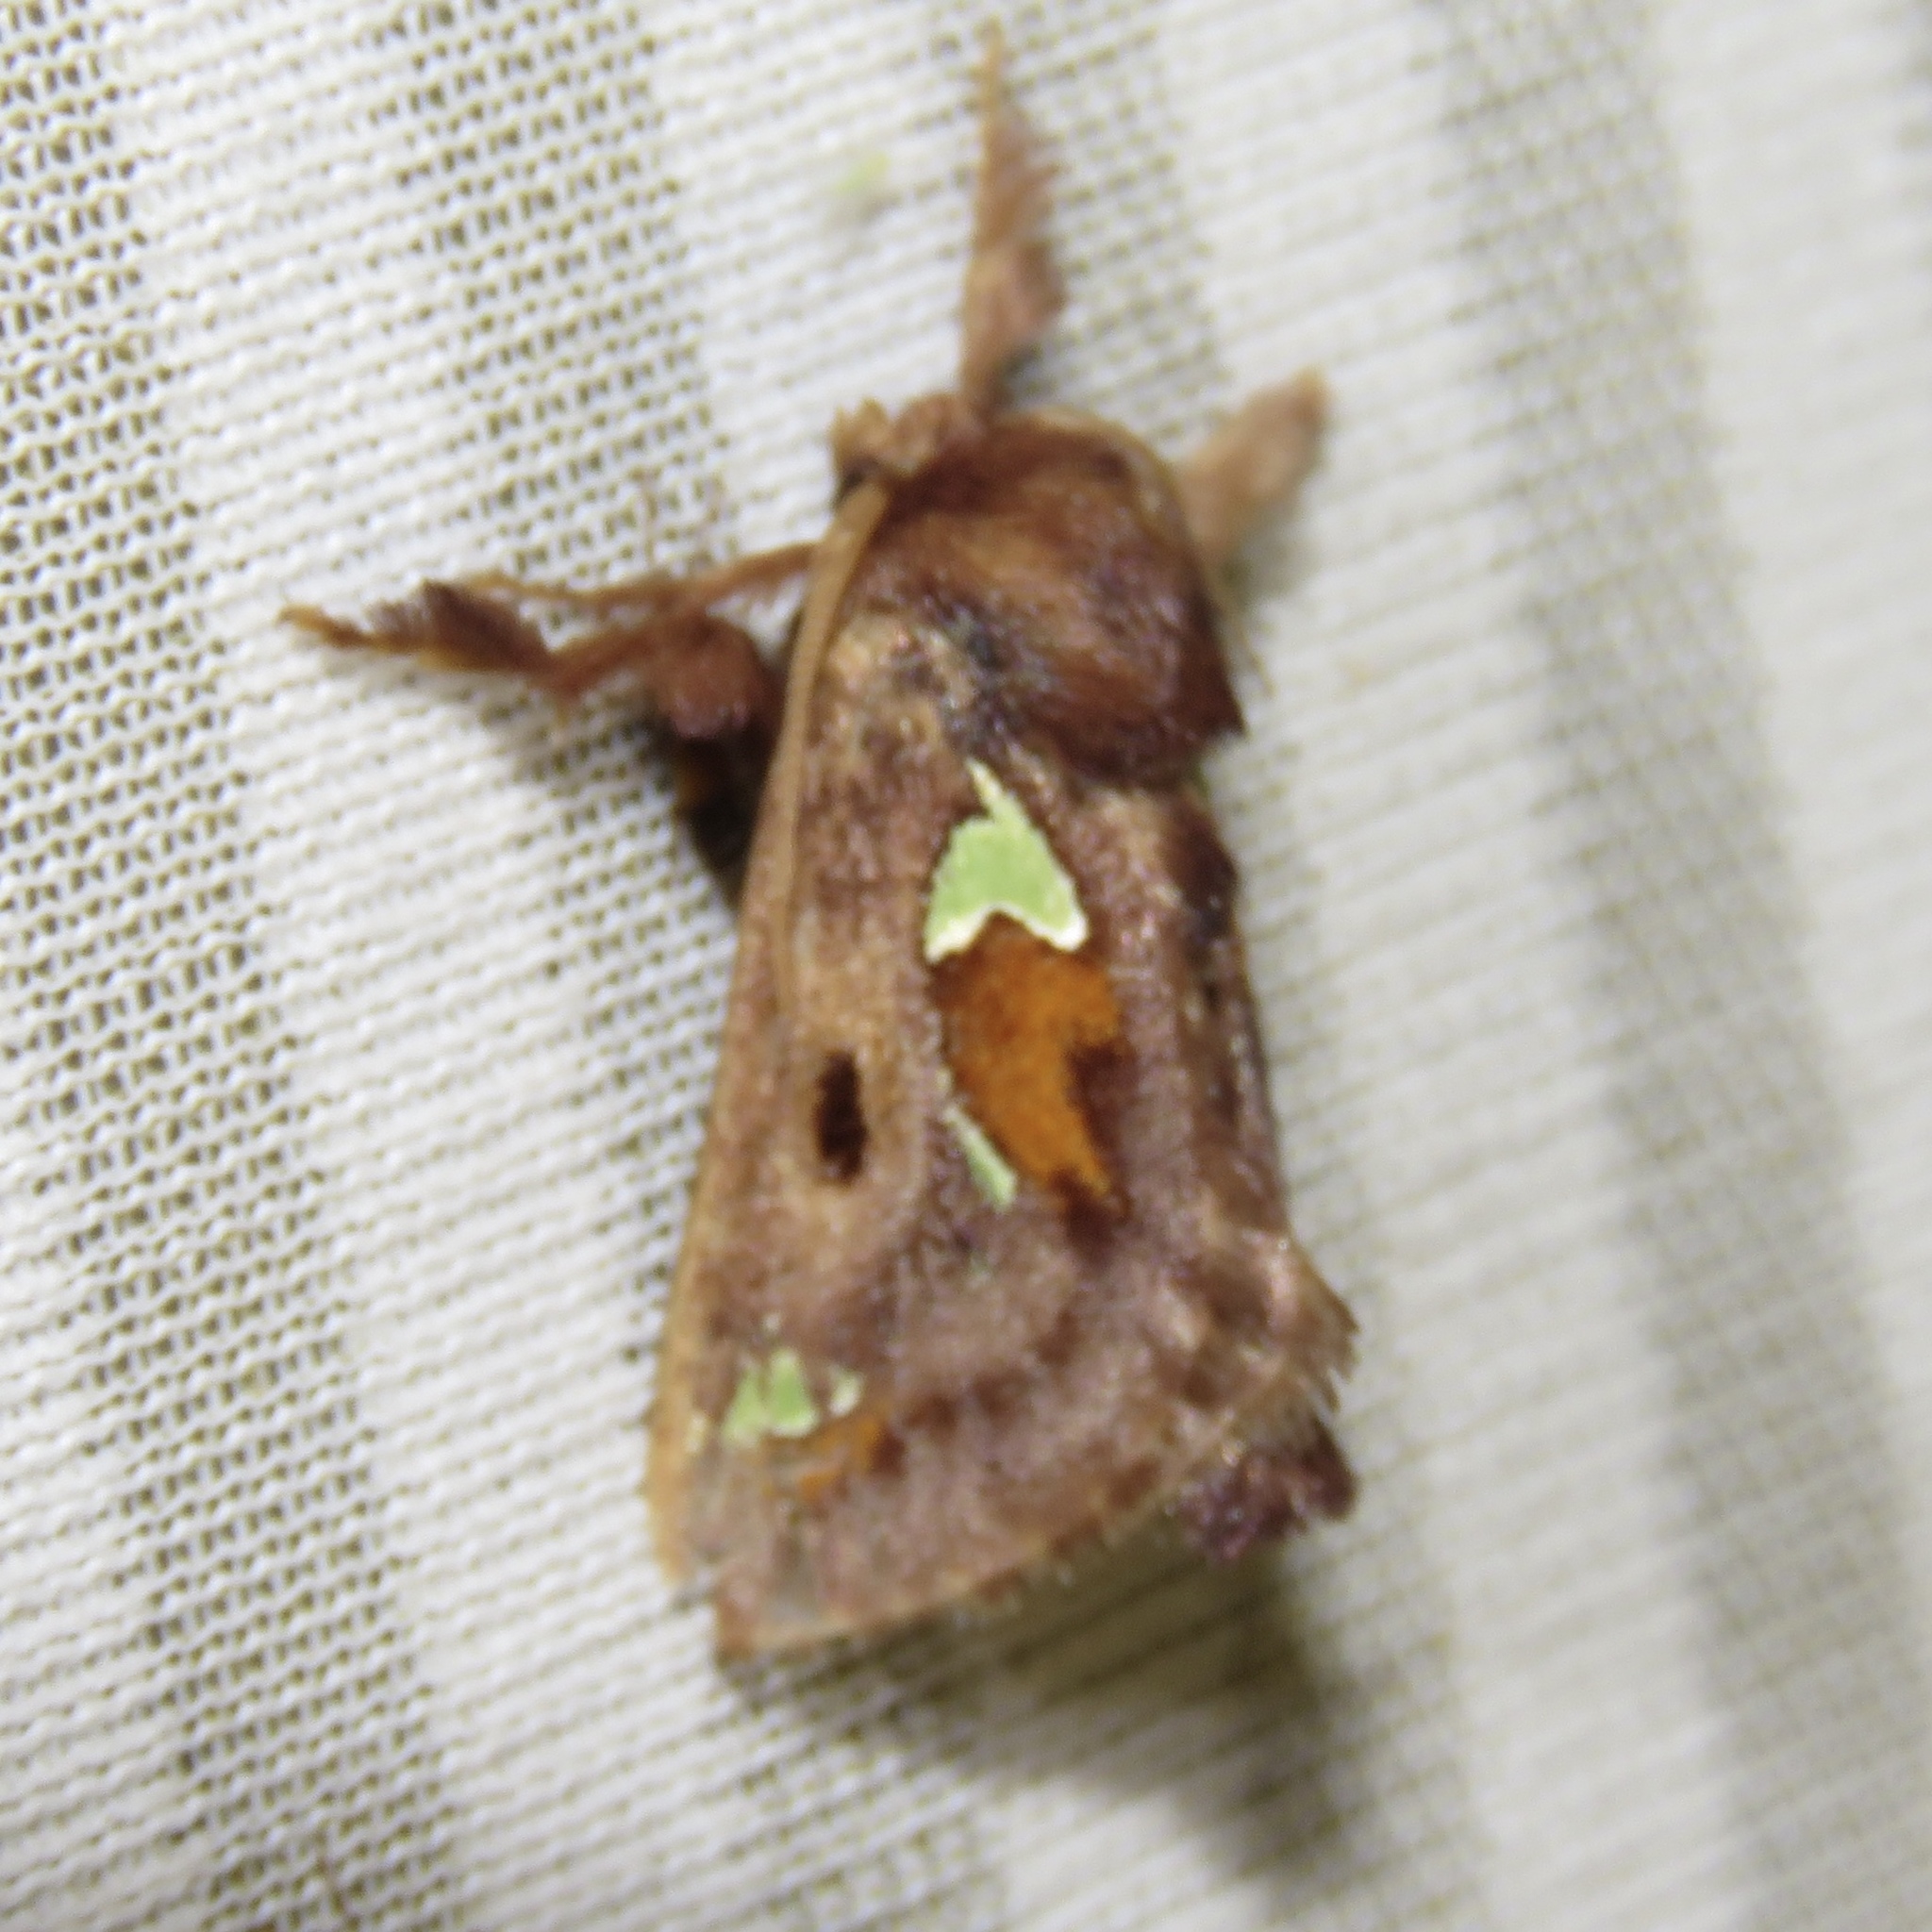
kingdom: Animalia
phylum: Arthropoda
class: Insecta
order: Lepidoptera
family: Limacodidae
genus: Euclea
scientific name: Euclea delphinii
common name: Spiny oak-slug moth
